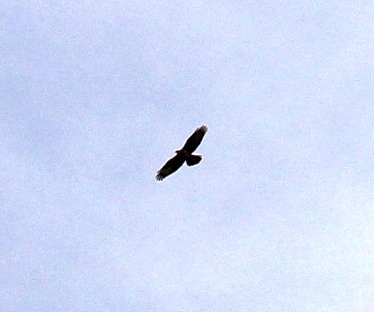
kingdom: Animalia
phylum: Chordata
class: Aves
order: Accipitriformes
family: Accipitridae
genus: Pernis
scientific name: Pernis apivorus
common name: European honey buzzard
